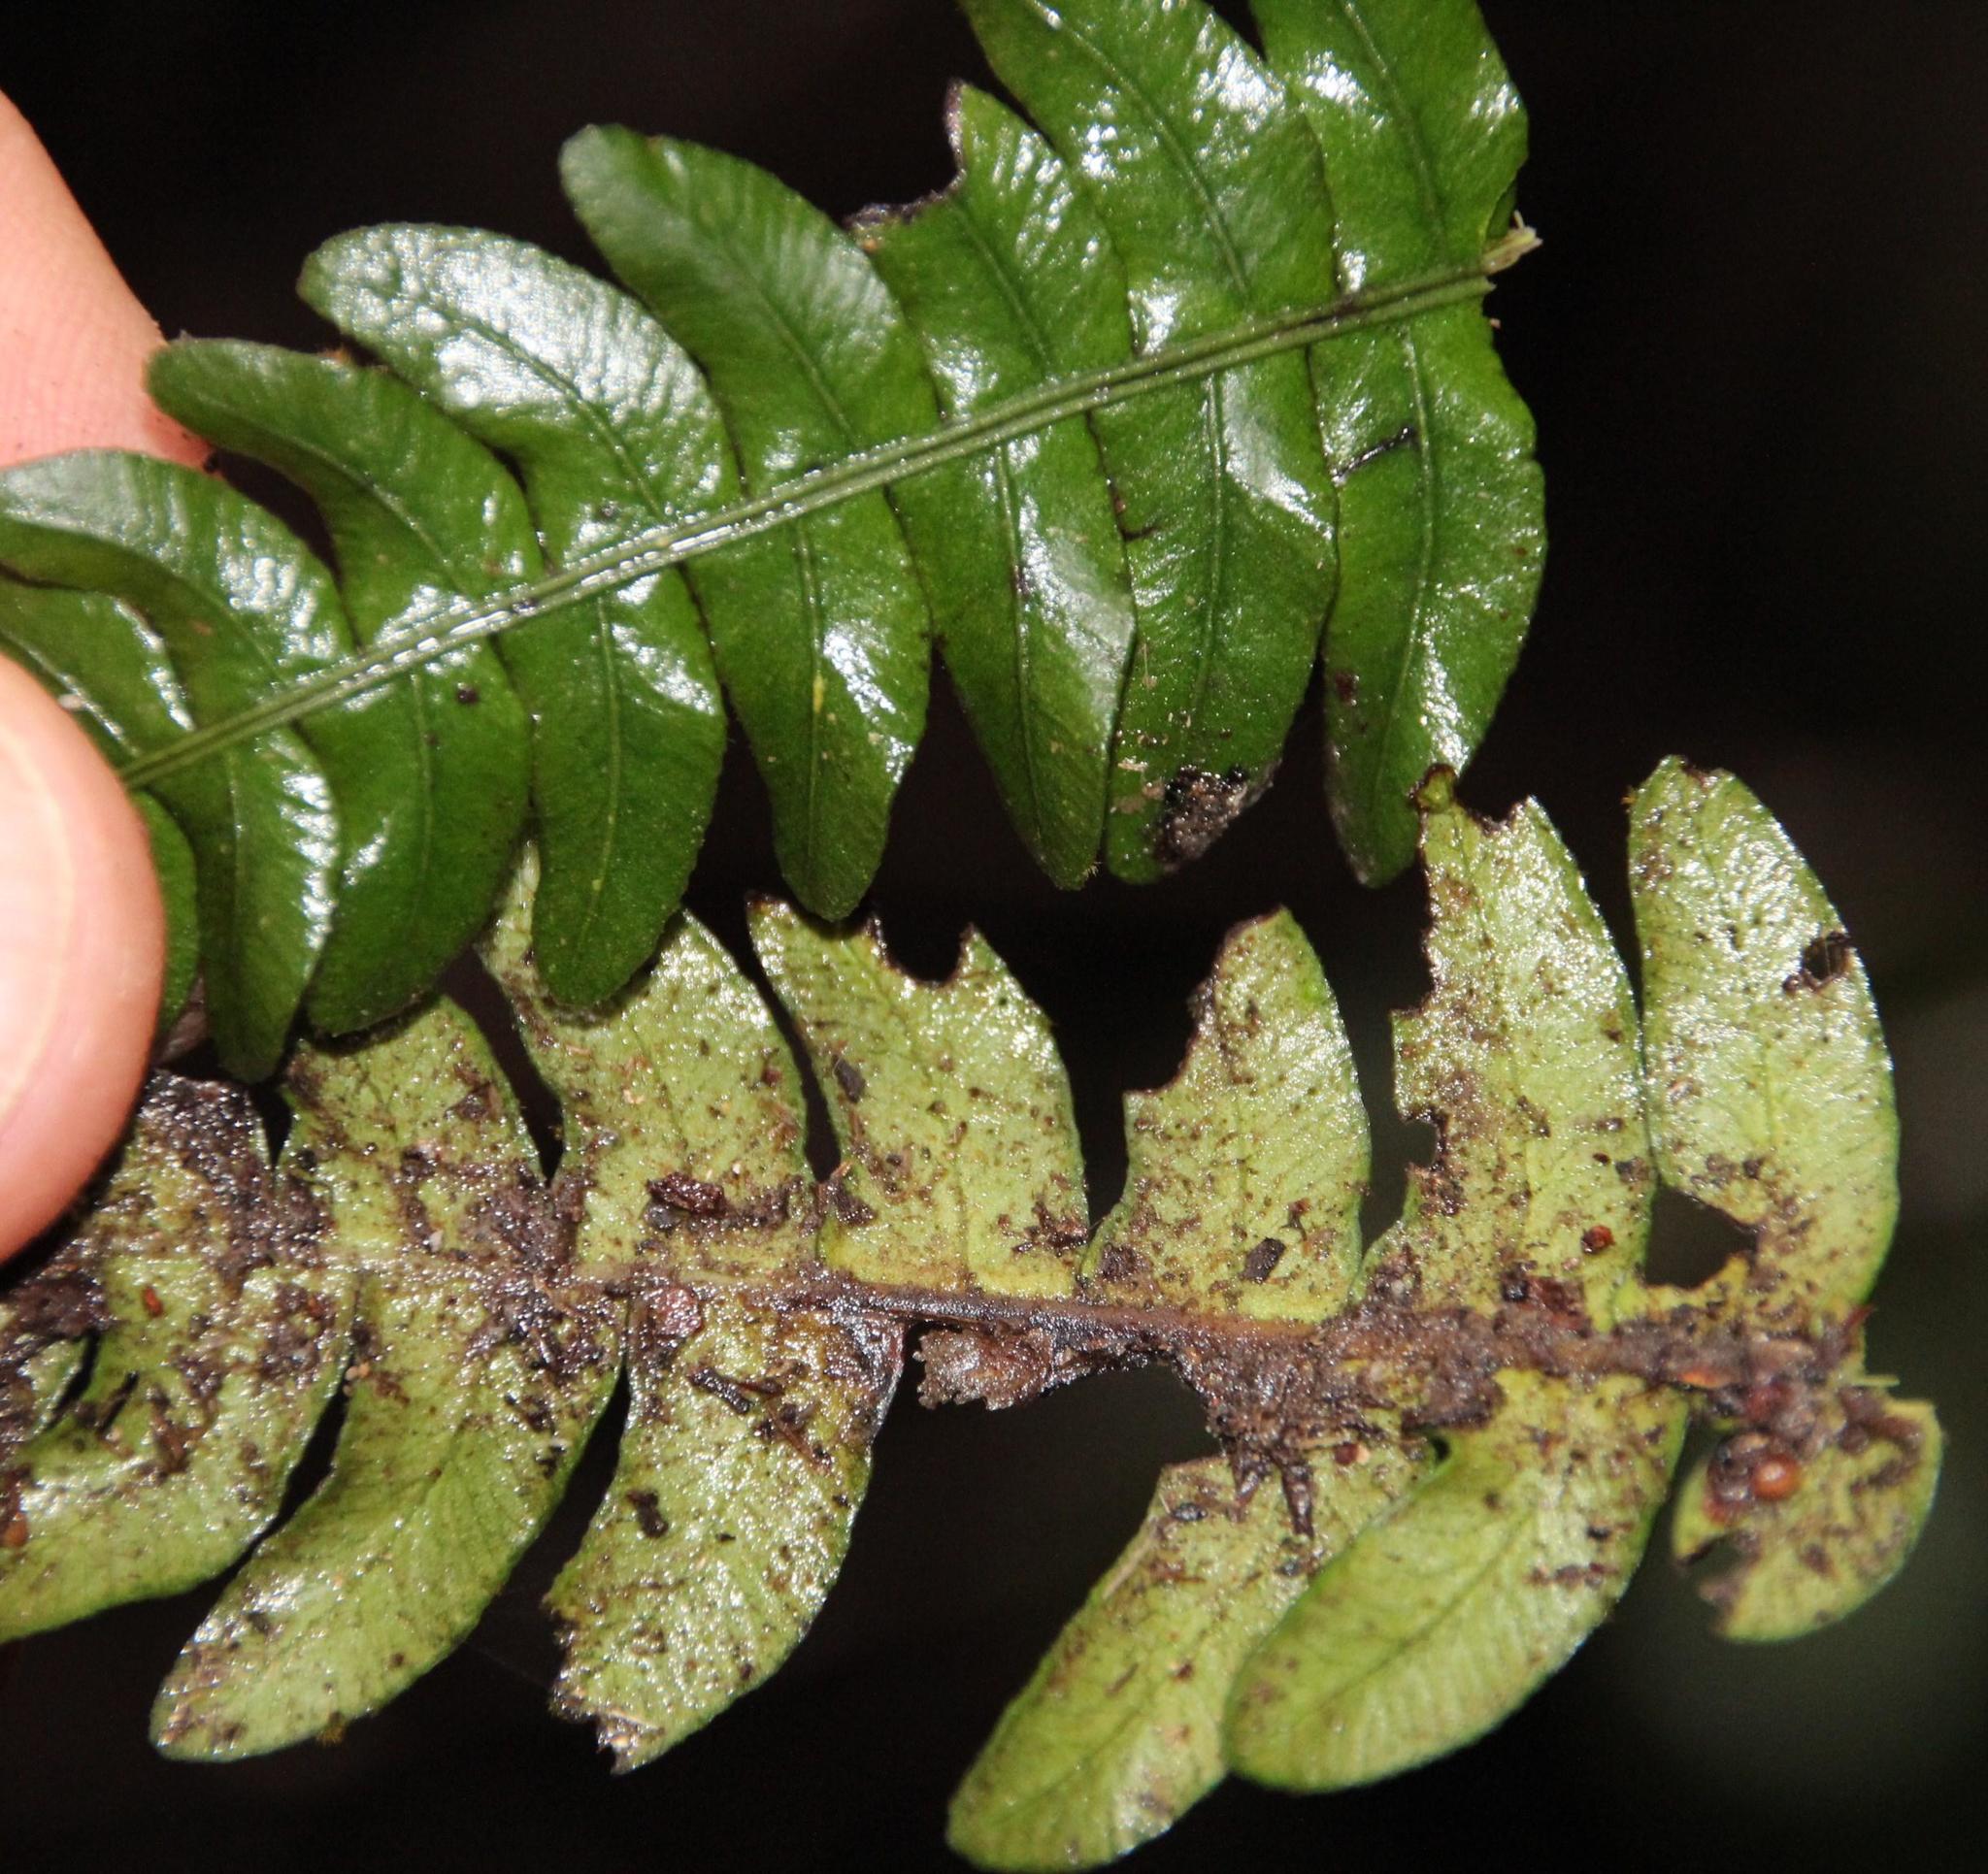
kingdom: Plantae
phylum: Tracheophyta
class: Polypodiopsida
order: Polypodiales
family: Blechnaceae
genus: Austroblechnum
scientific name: Austroblechnum lechleri
